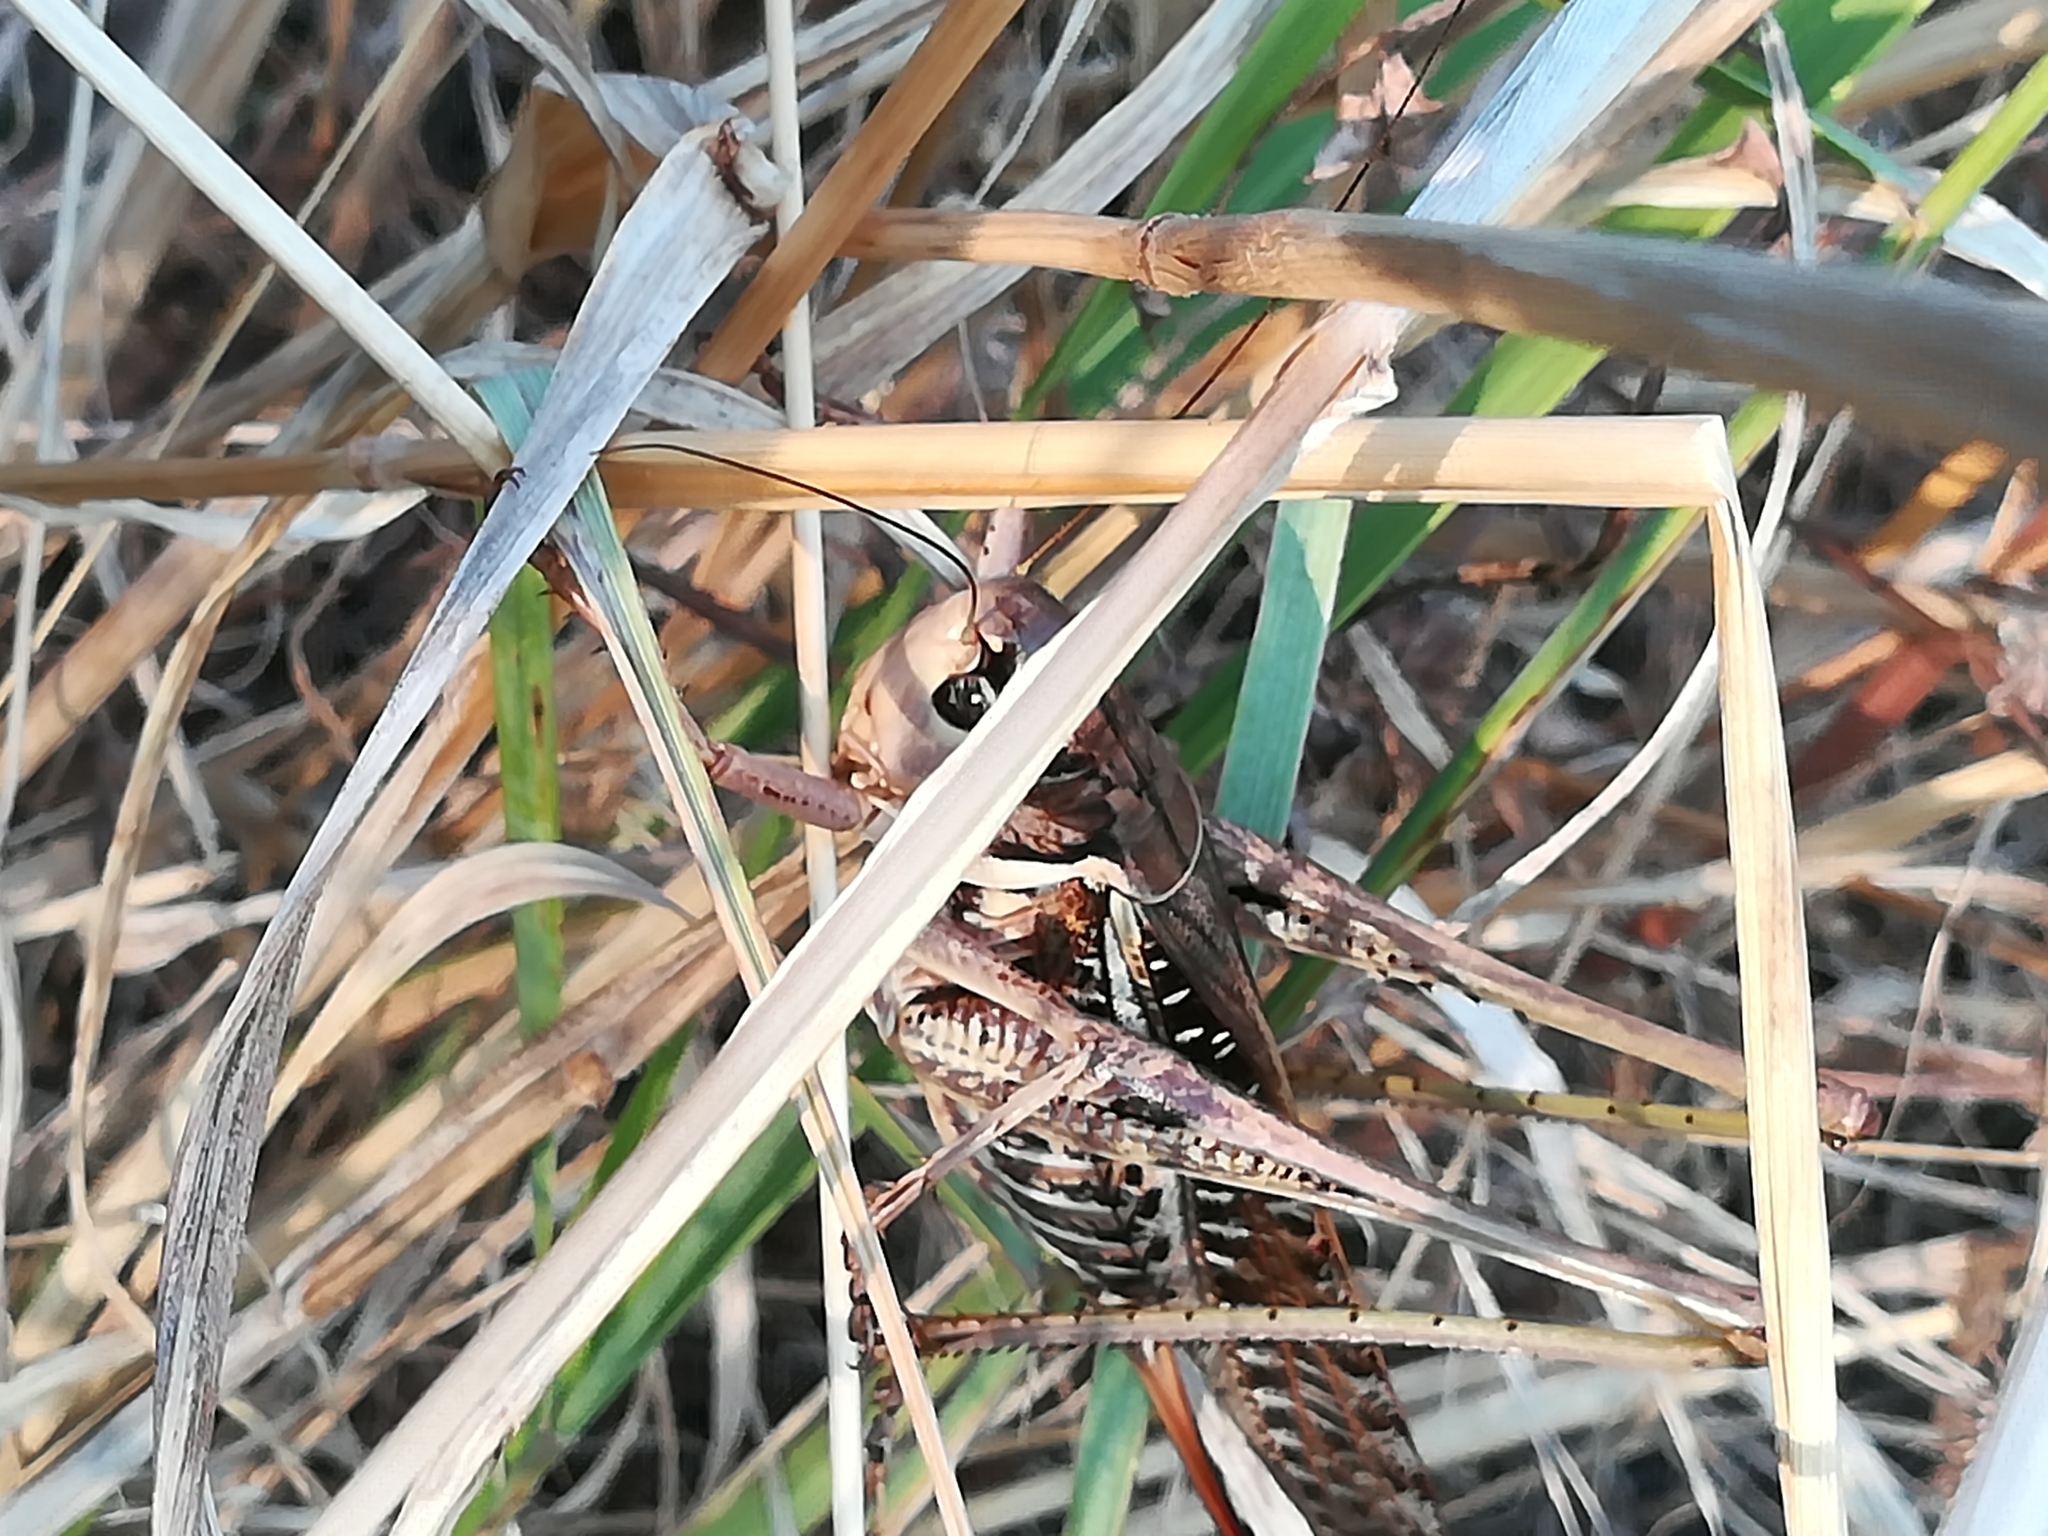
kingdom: Animalia
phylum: Arthropoda
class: Insecta
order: Orthoptera
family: Tettigoniidae
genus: Decticus
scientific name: Decticus albifrons
